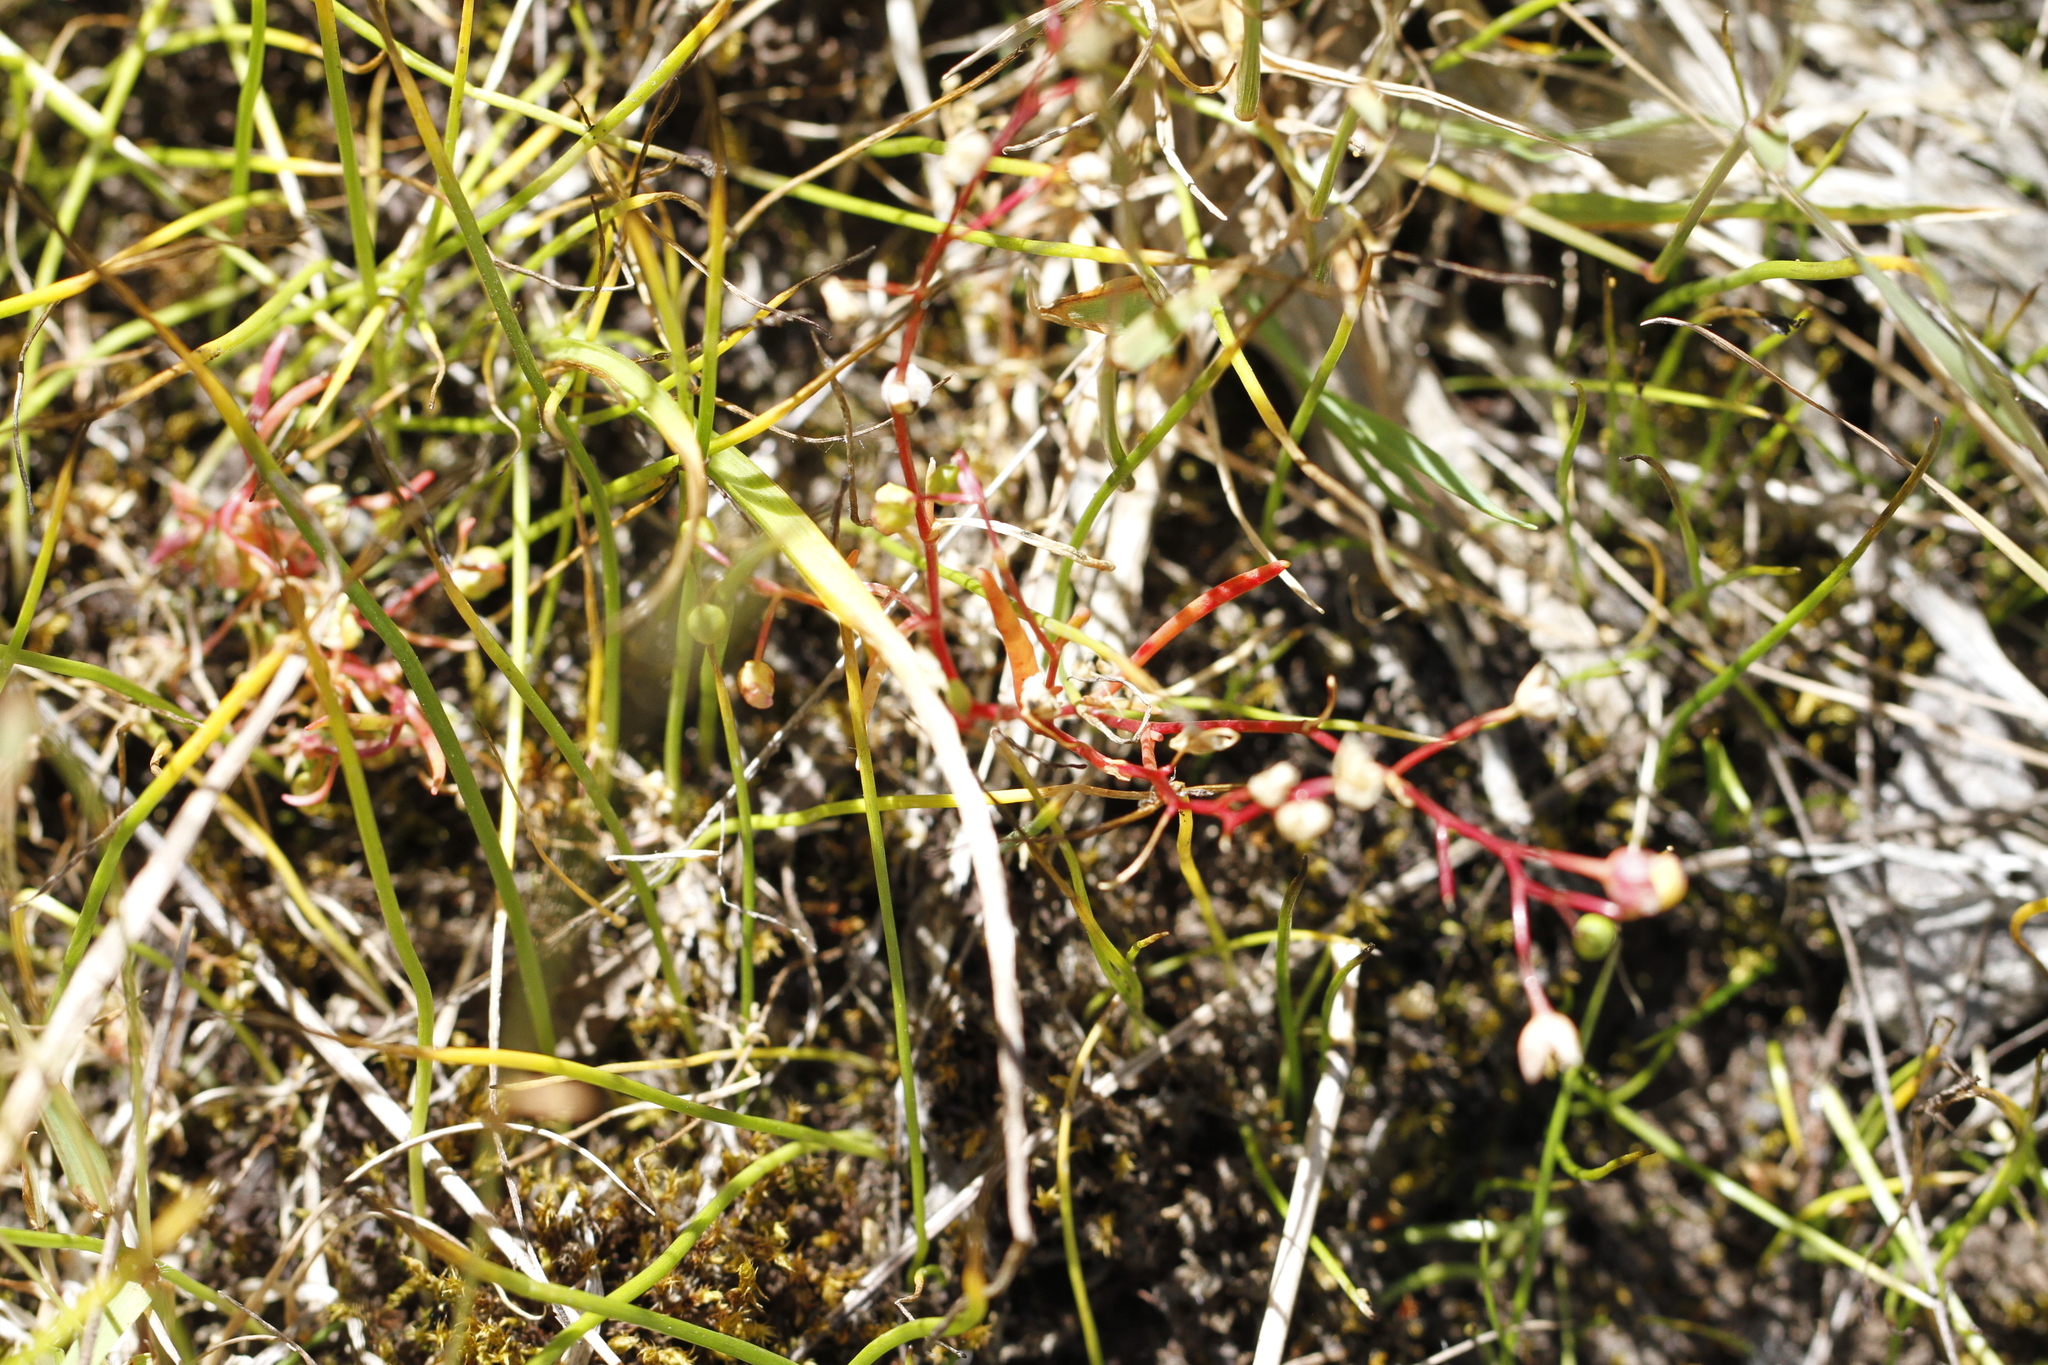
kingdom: Plantae
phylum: Tracheophyta
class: Magnoliopsida
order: Caryophyllales
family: Montiaceae
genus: Montia
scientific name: Montia linearis
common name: Narrow-leaf montia
